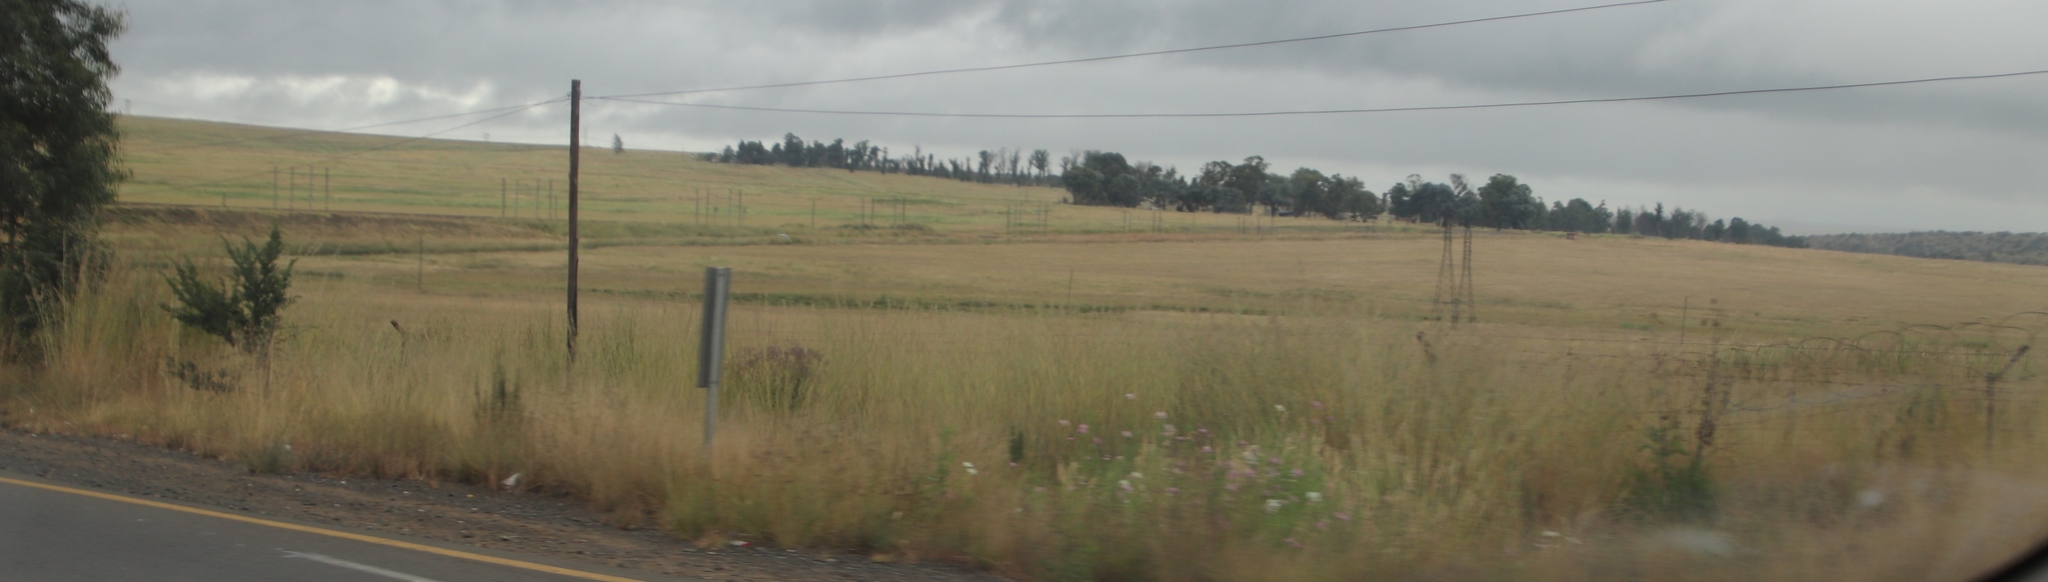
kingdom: Plantae
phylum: Tracheophyta
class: Magnoliopsida
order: Asterales
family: Asteraceae
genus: Cosmos
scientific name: Cosmos bipinnatus
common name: Garden cosmos
